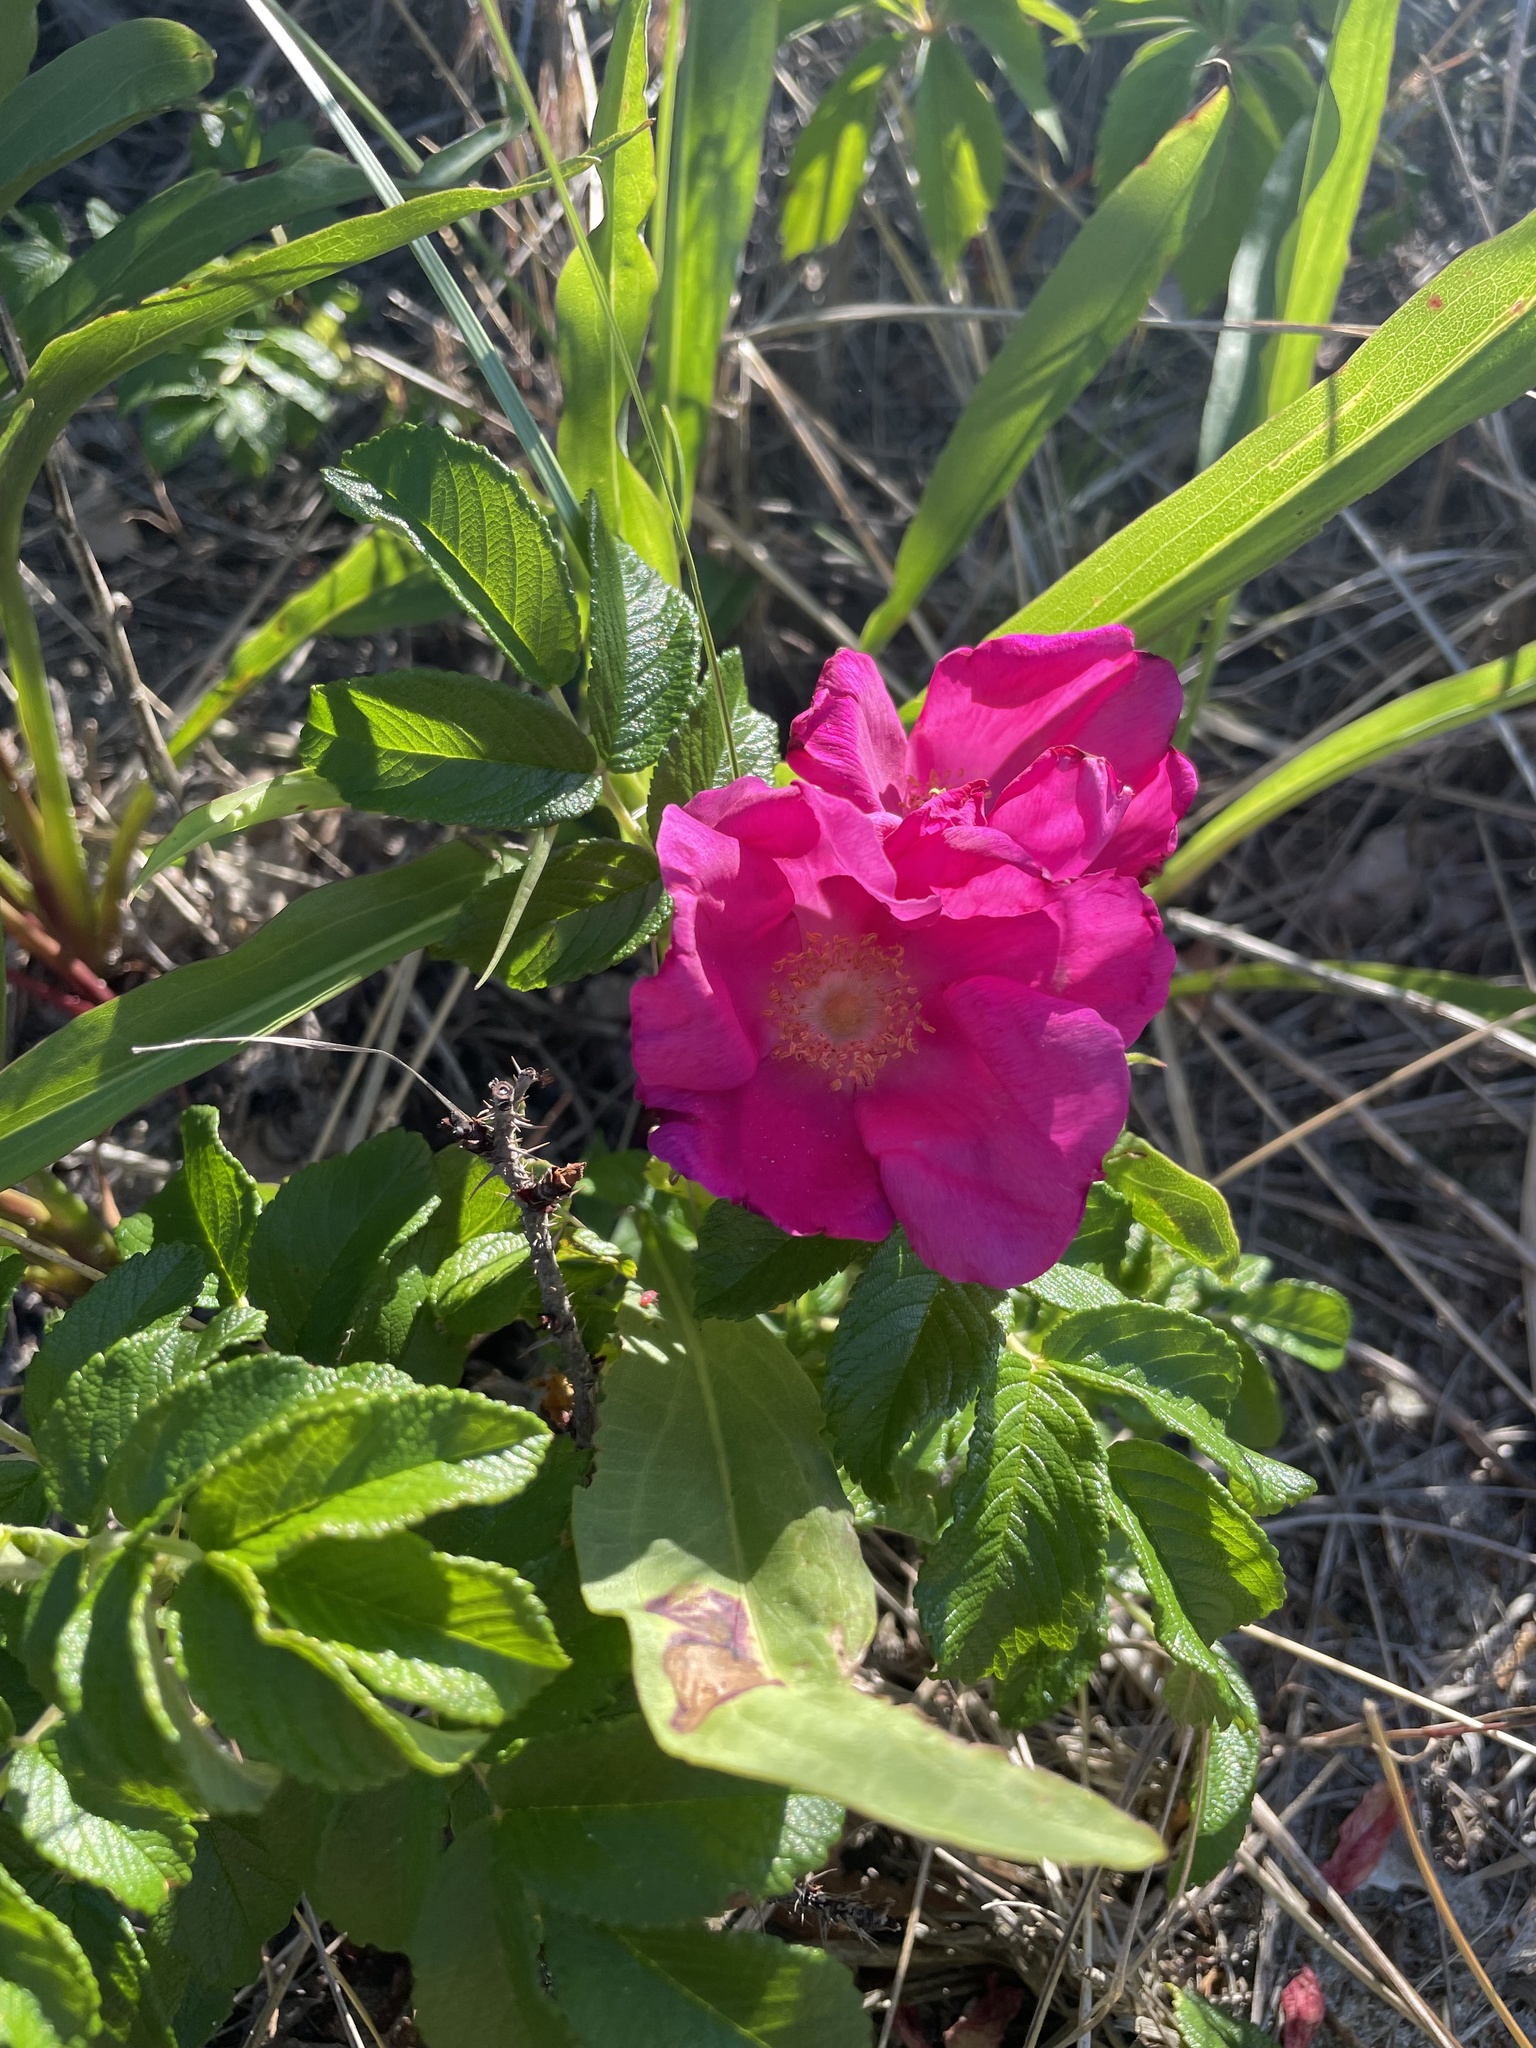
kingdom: Plantae
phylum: Tracheophyta
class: Magnoliopsida
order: Rosales
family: Rosaceae
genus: Rosa
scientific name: Rosa rugosa
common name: Japanese rose
